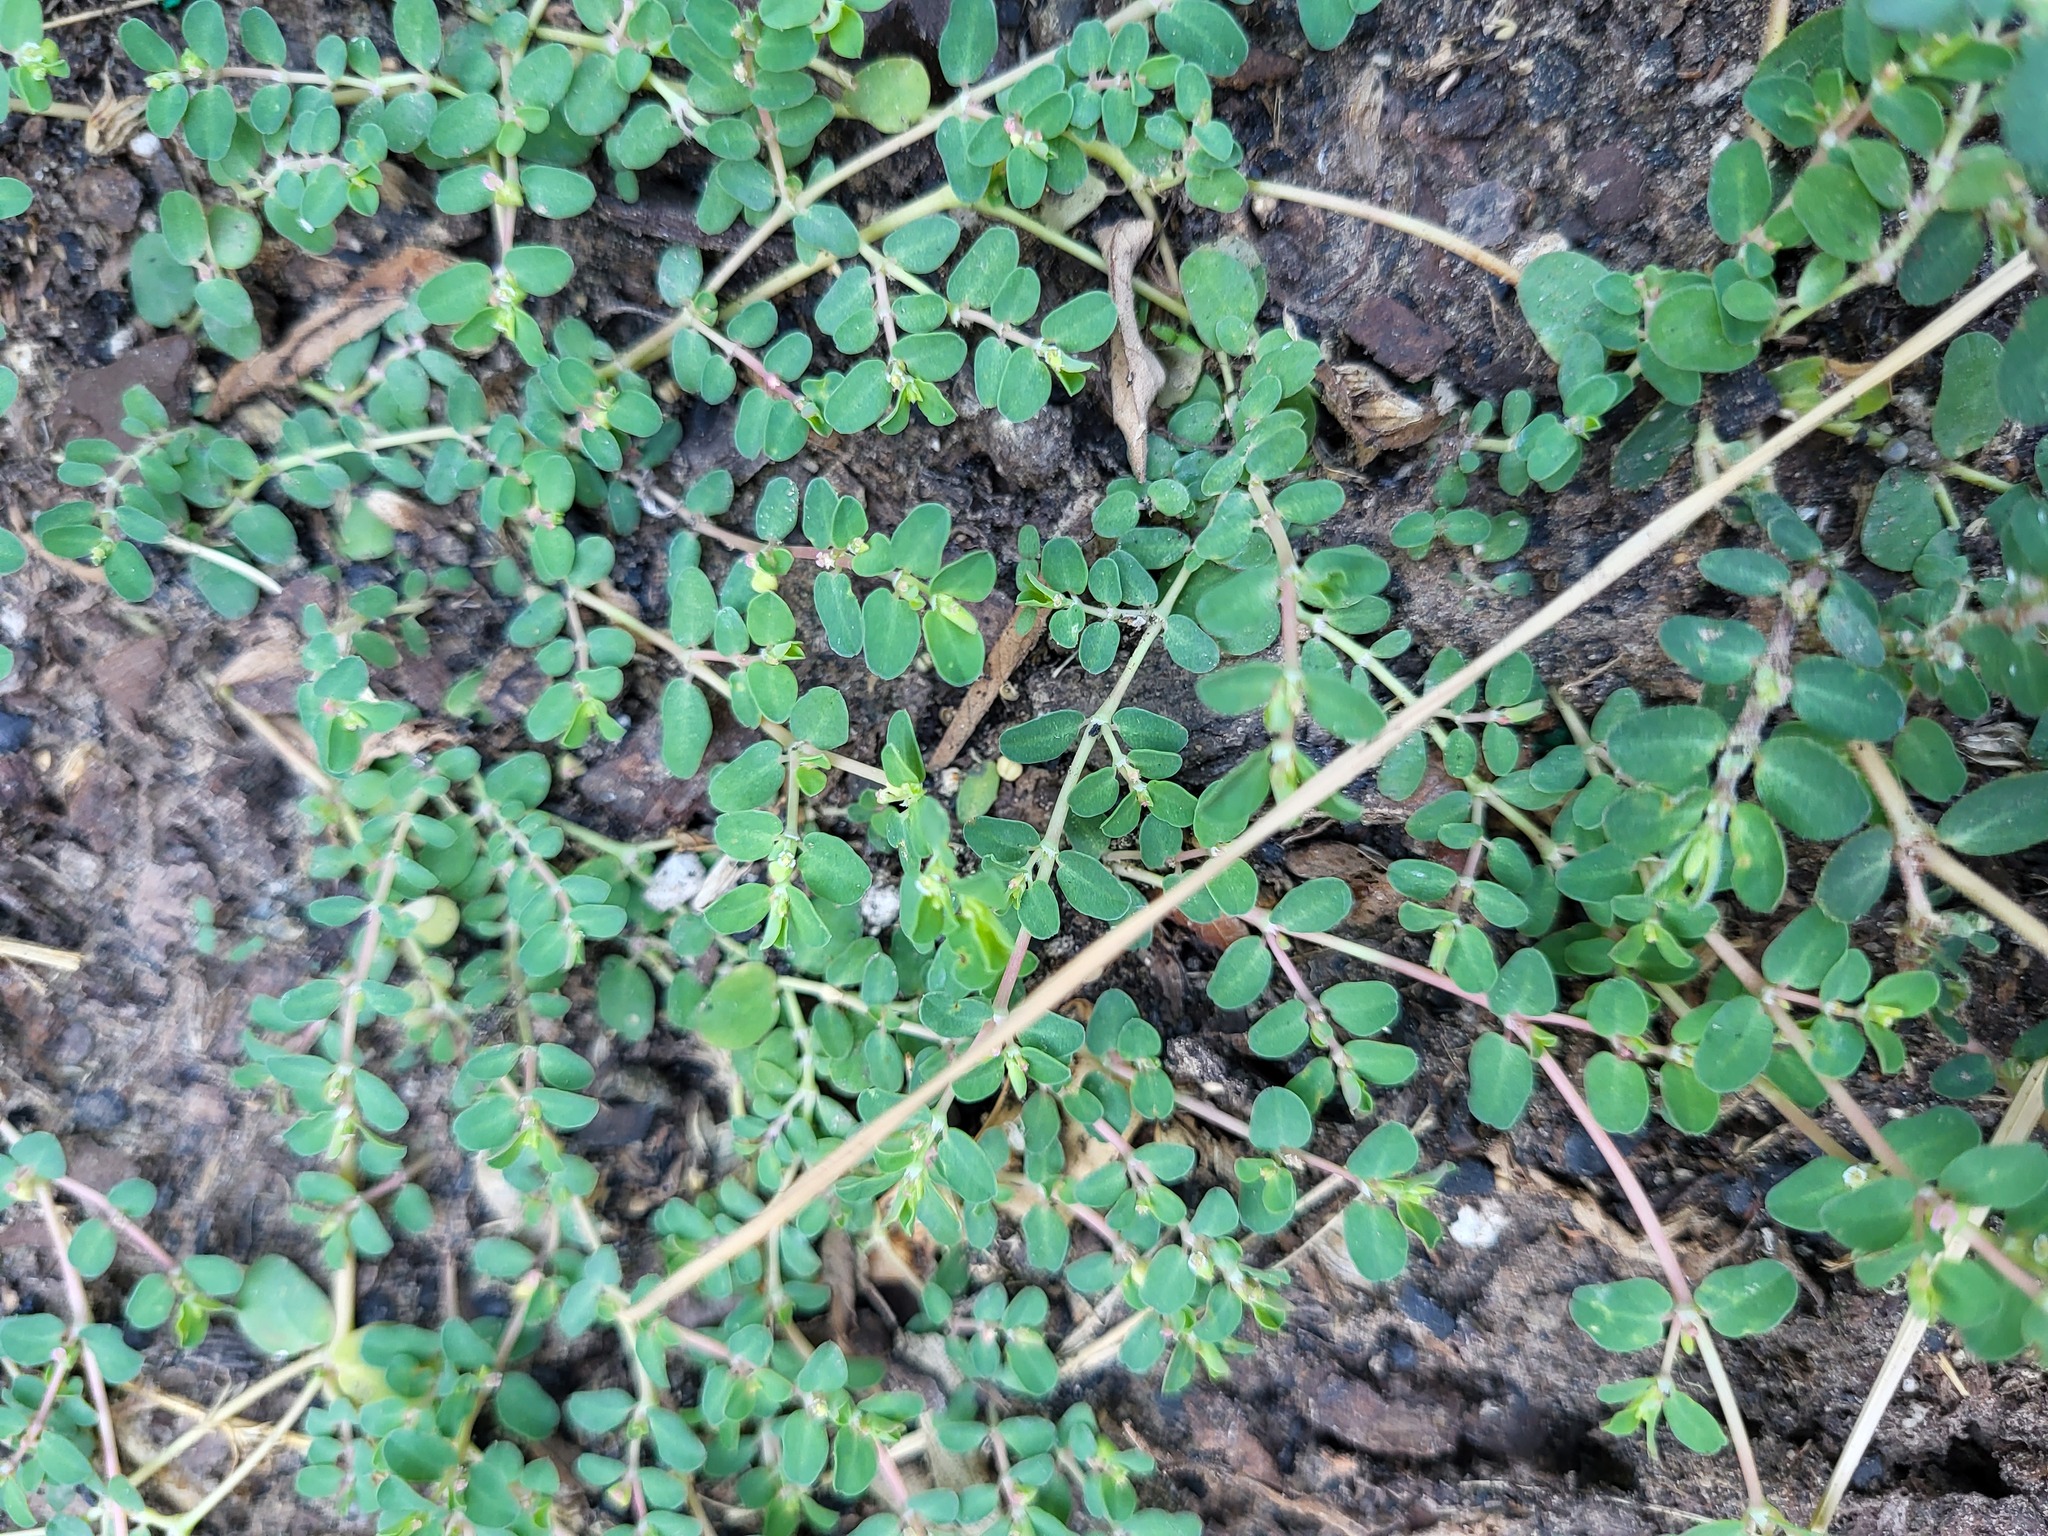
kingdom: Plantae
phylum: Tracheophyta
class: Magnoliopsida
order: Malpighiales
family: Euphorbiaceae
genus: Euphorbia
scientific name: Euphorbia prostrata
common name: Prostrate sandmat
